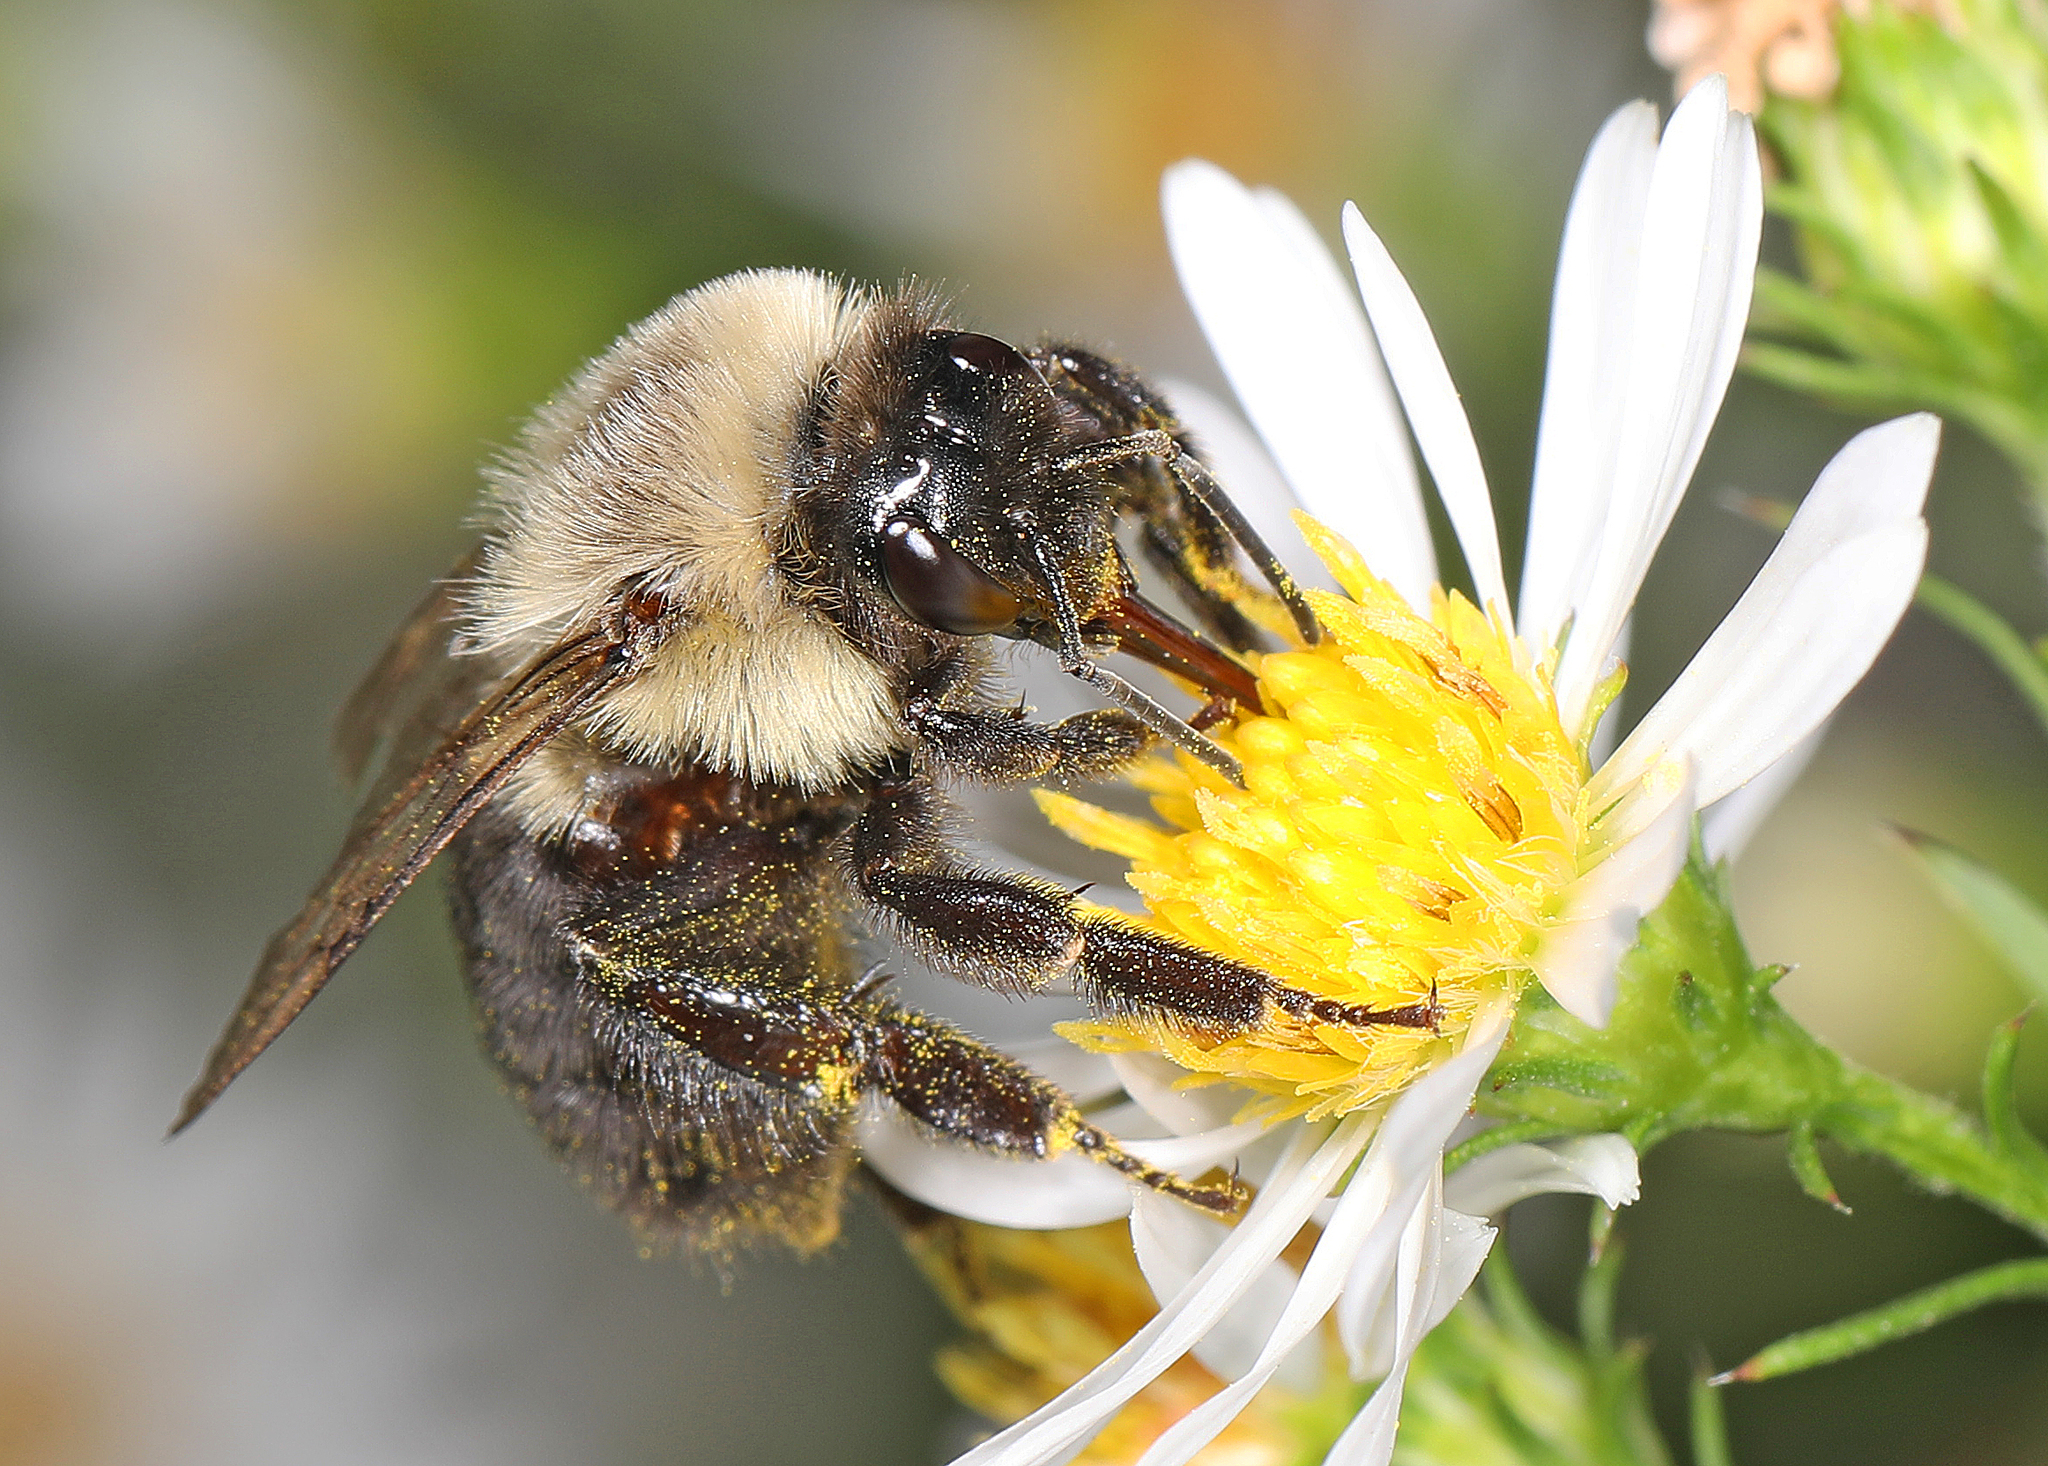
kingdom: Animalia
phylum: Arthropoda
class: Insecta
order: Hymenoptera
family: Apidae
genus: Bombus
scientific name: Bombus impatiens
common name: Common eastern bumble bee
